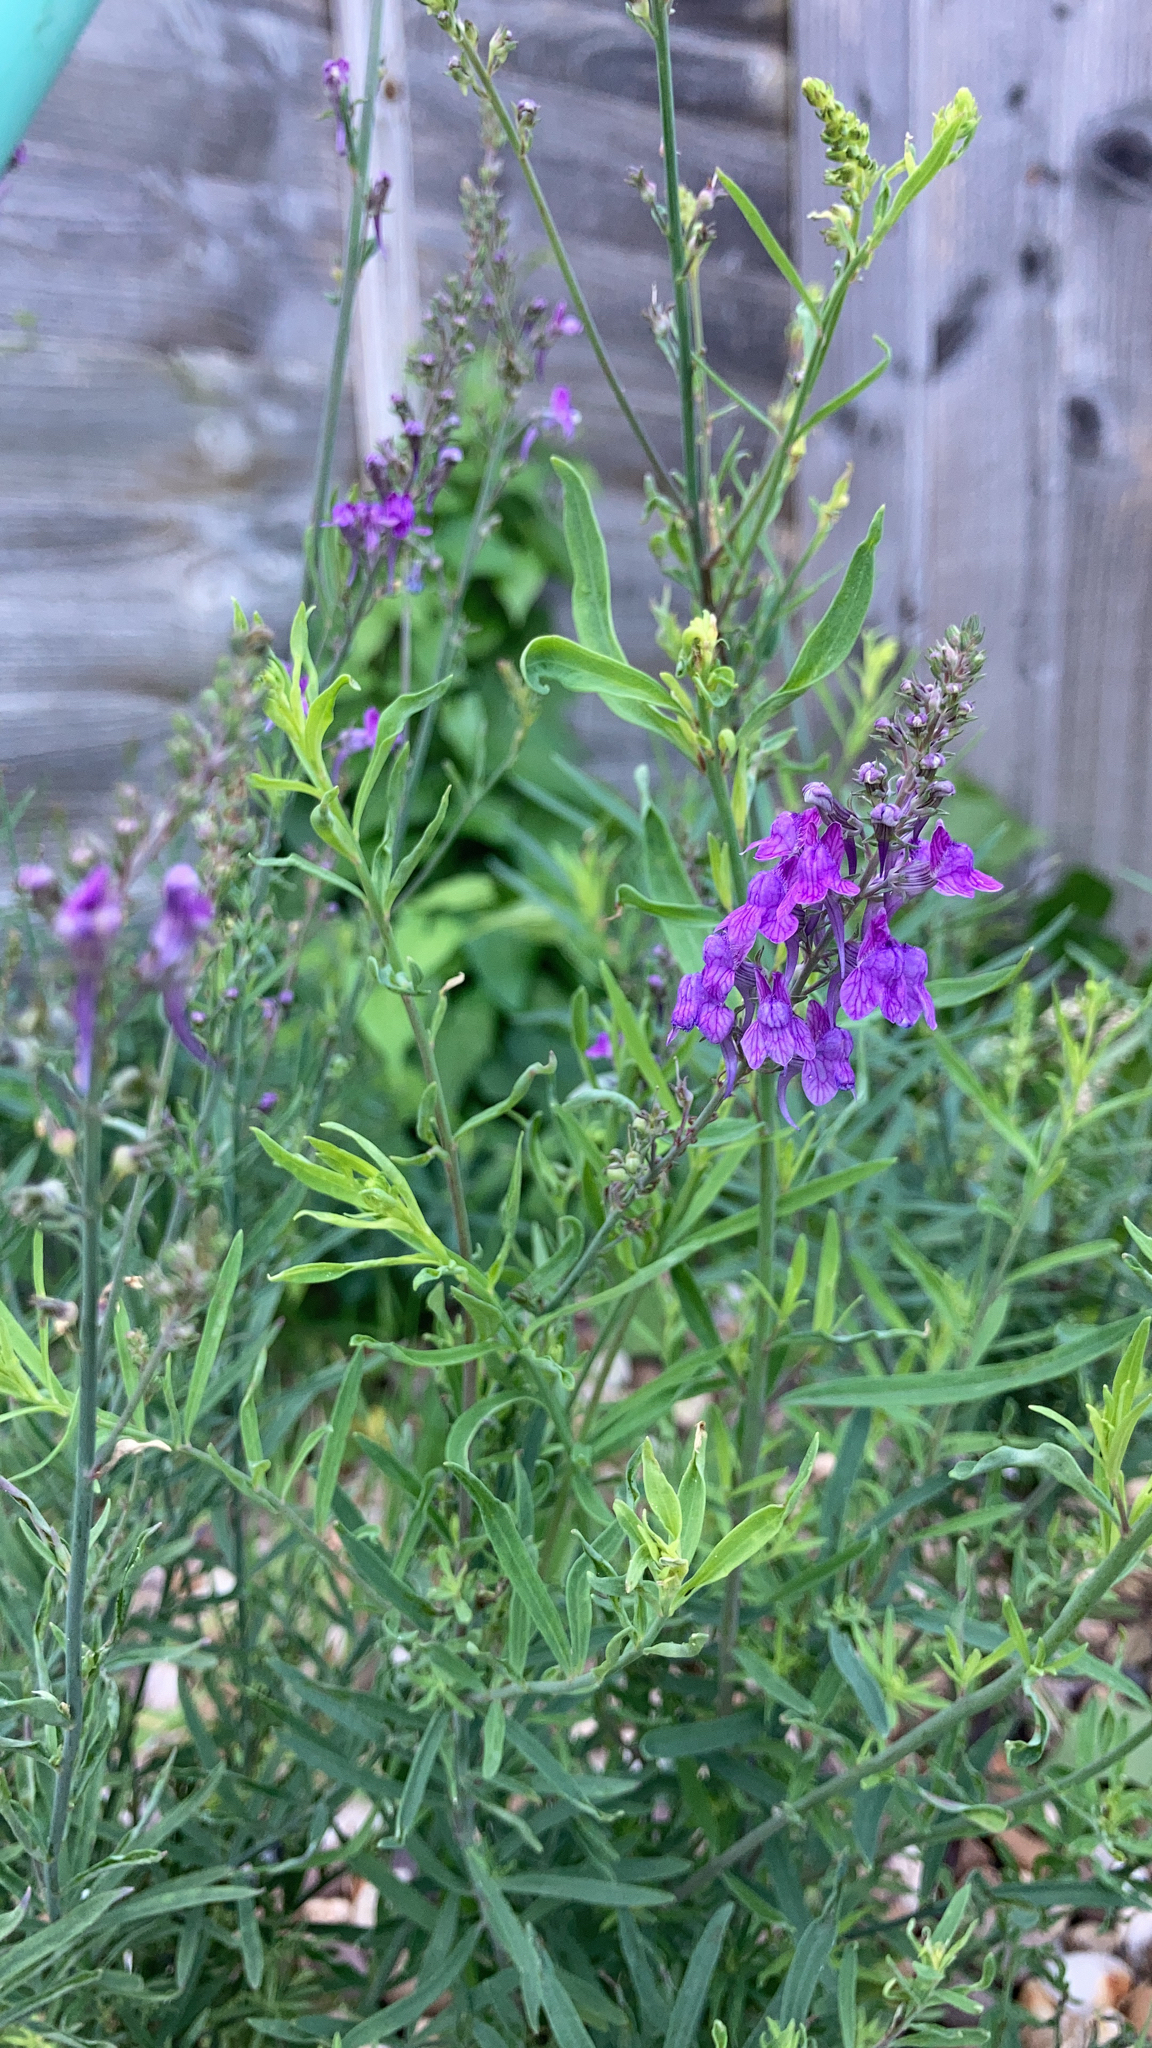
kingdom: Plantae
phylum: Tracheophyta
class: Magnoliopsida
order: Lamiales
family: Plantaginaceae
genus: Linaria
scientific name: Linaria purpurea
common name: Purple toadflax
